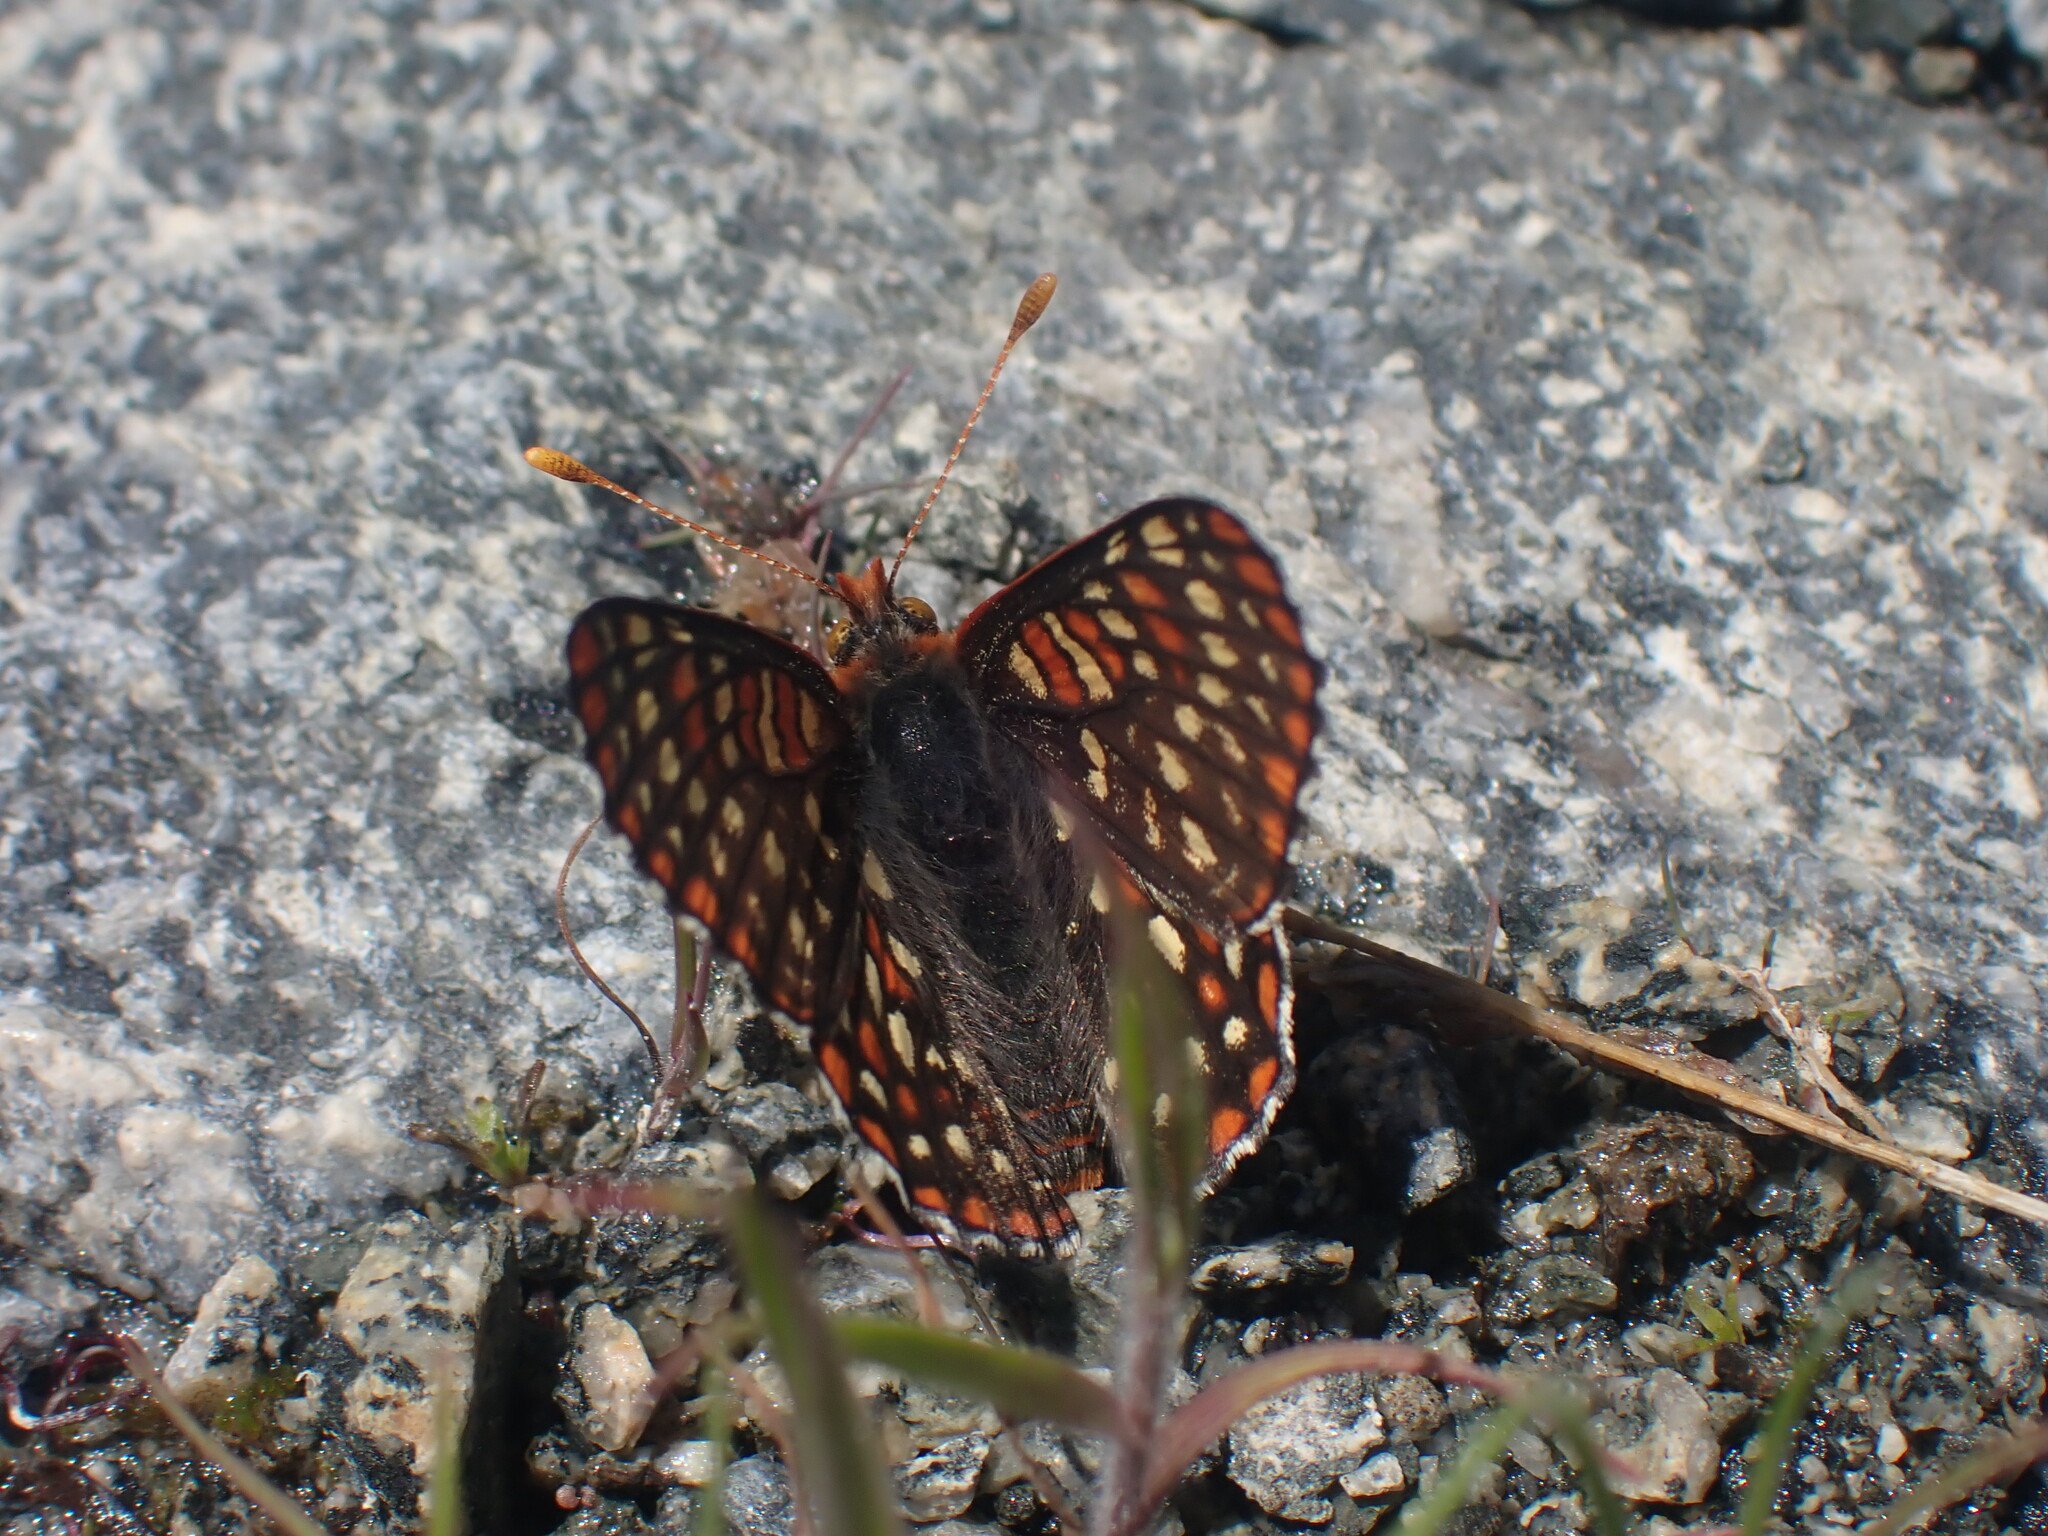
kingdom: Animalia
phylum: Arthropoda
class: Insecta
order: Lepidoptera
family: Nymphalidae
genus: Occidryas
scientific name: Occidryas anicia
